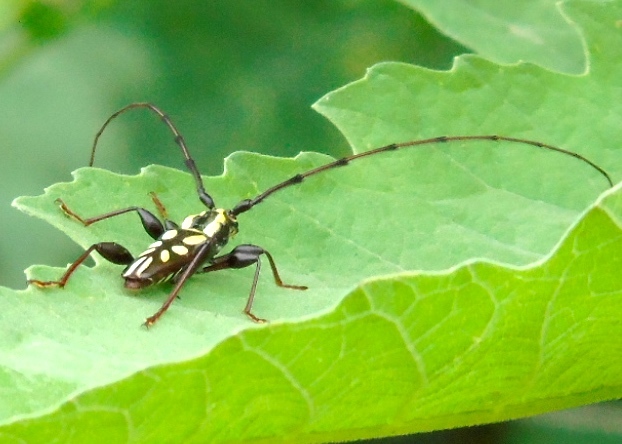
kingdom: Animalia
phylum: Arthropoda
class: Insecta
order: Coleoptera
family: Cerambycidae
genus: Ornithia
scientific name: Ornithia zapotensis
